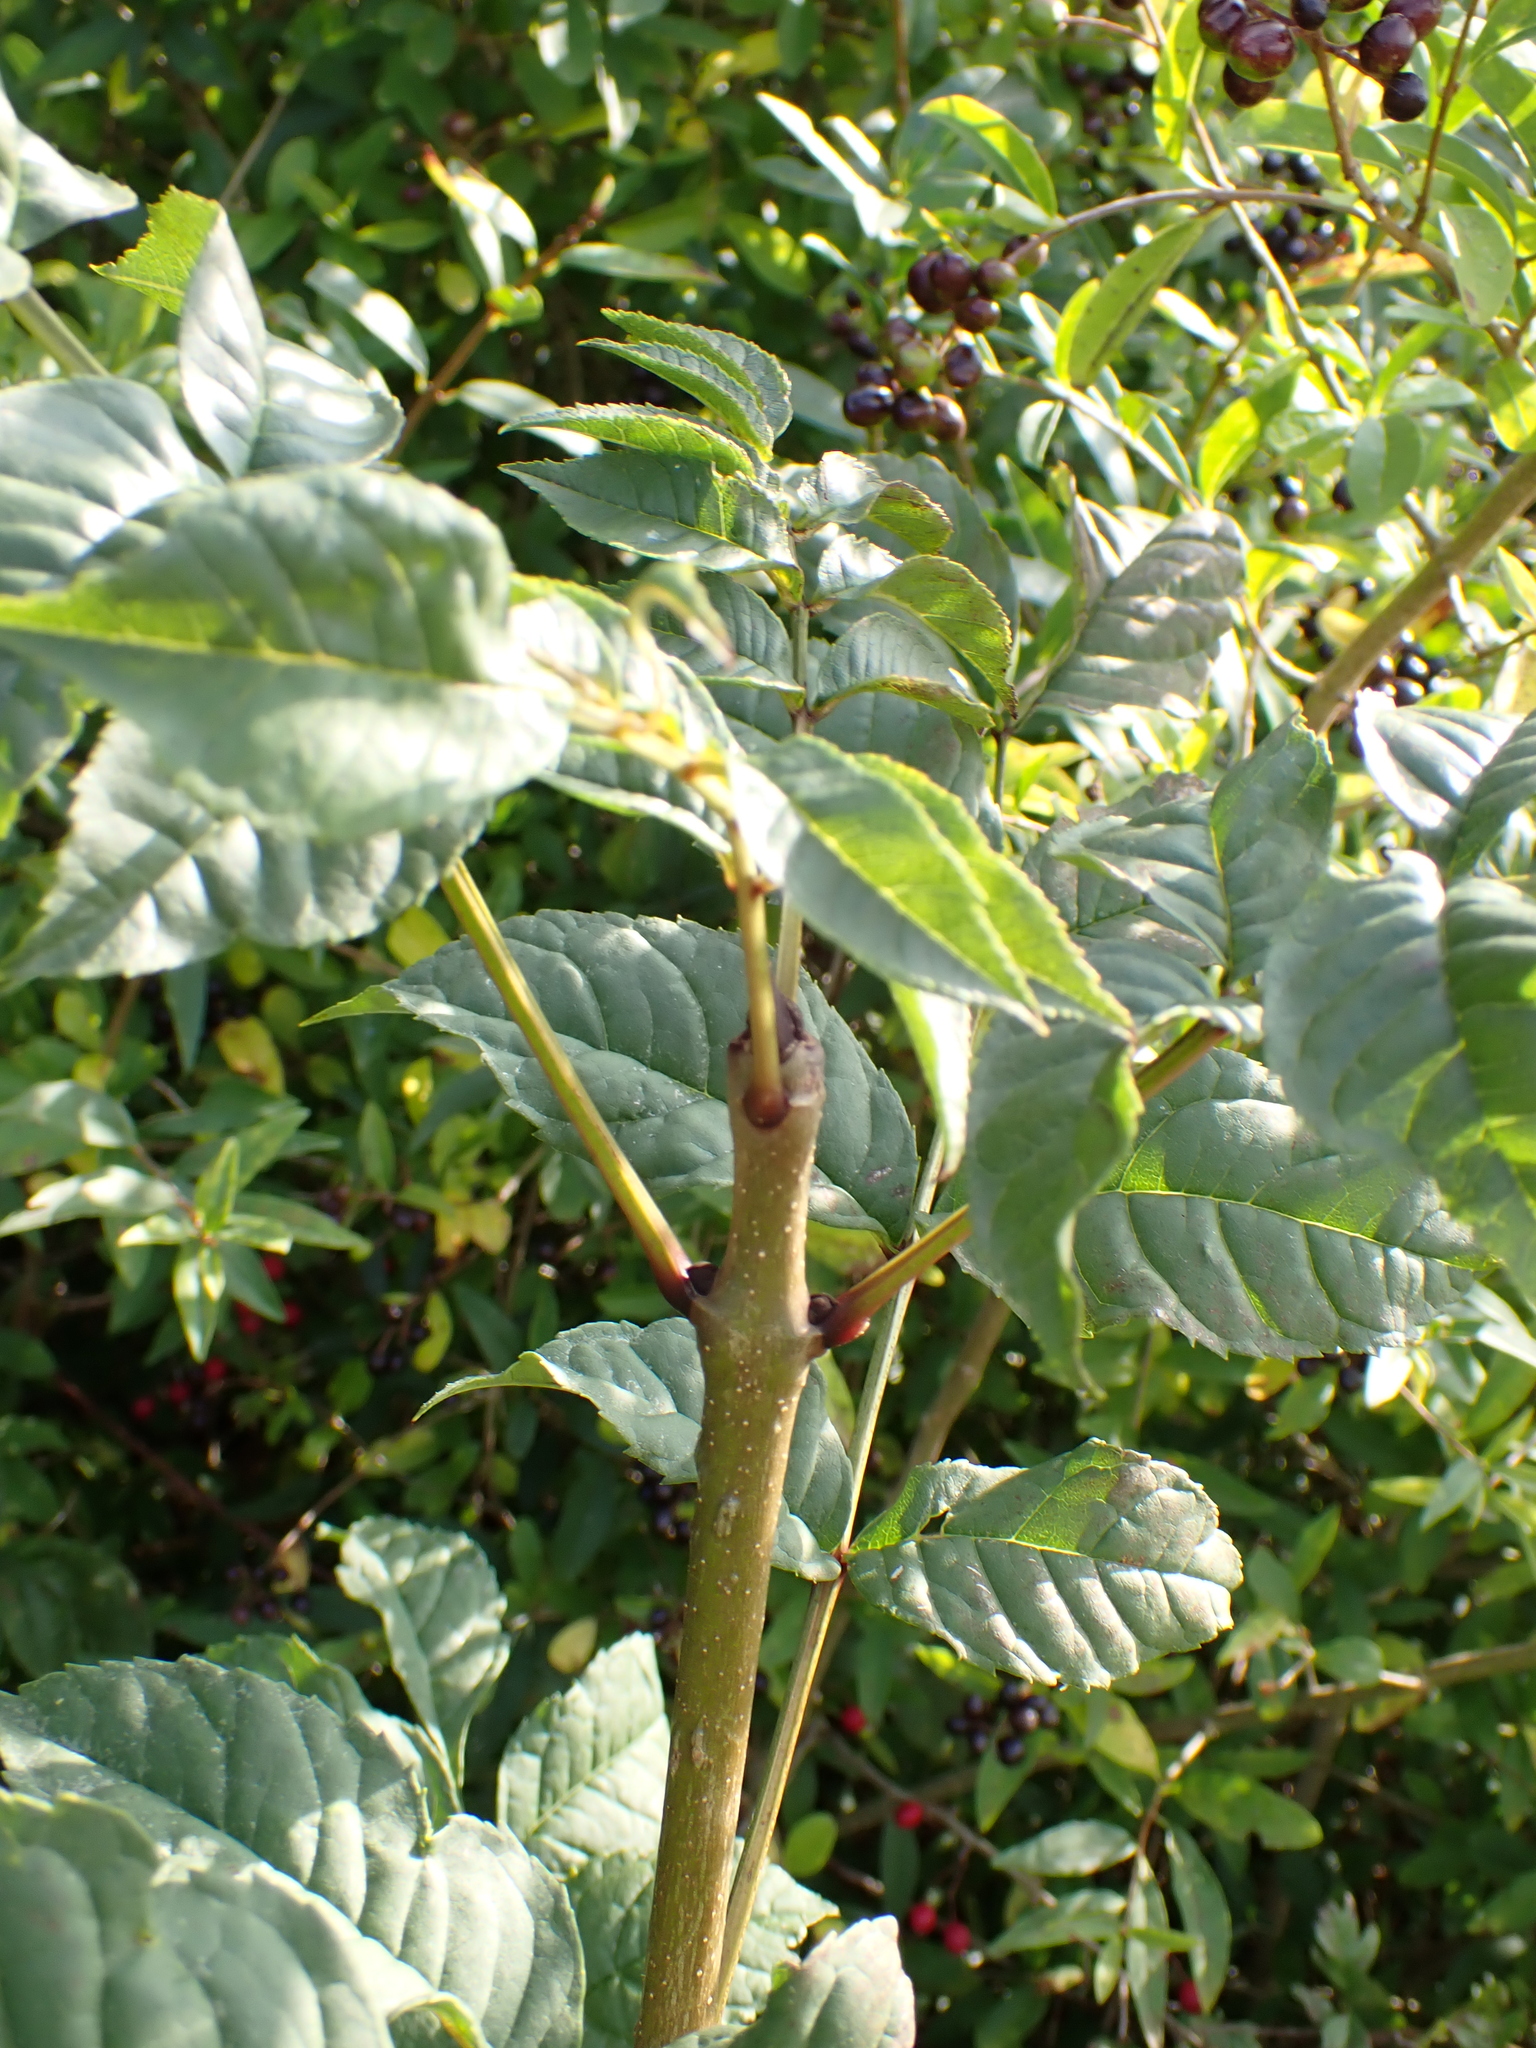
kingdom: Plantae
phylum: Tracheophyta
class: Magnoliopsida
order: Lamiales
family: Oleaceae
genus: Fraxinus
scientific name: Fraxinus excelsior
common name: European ash
